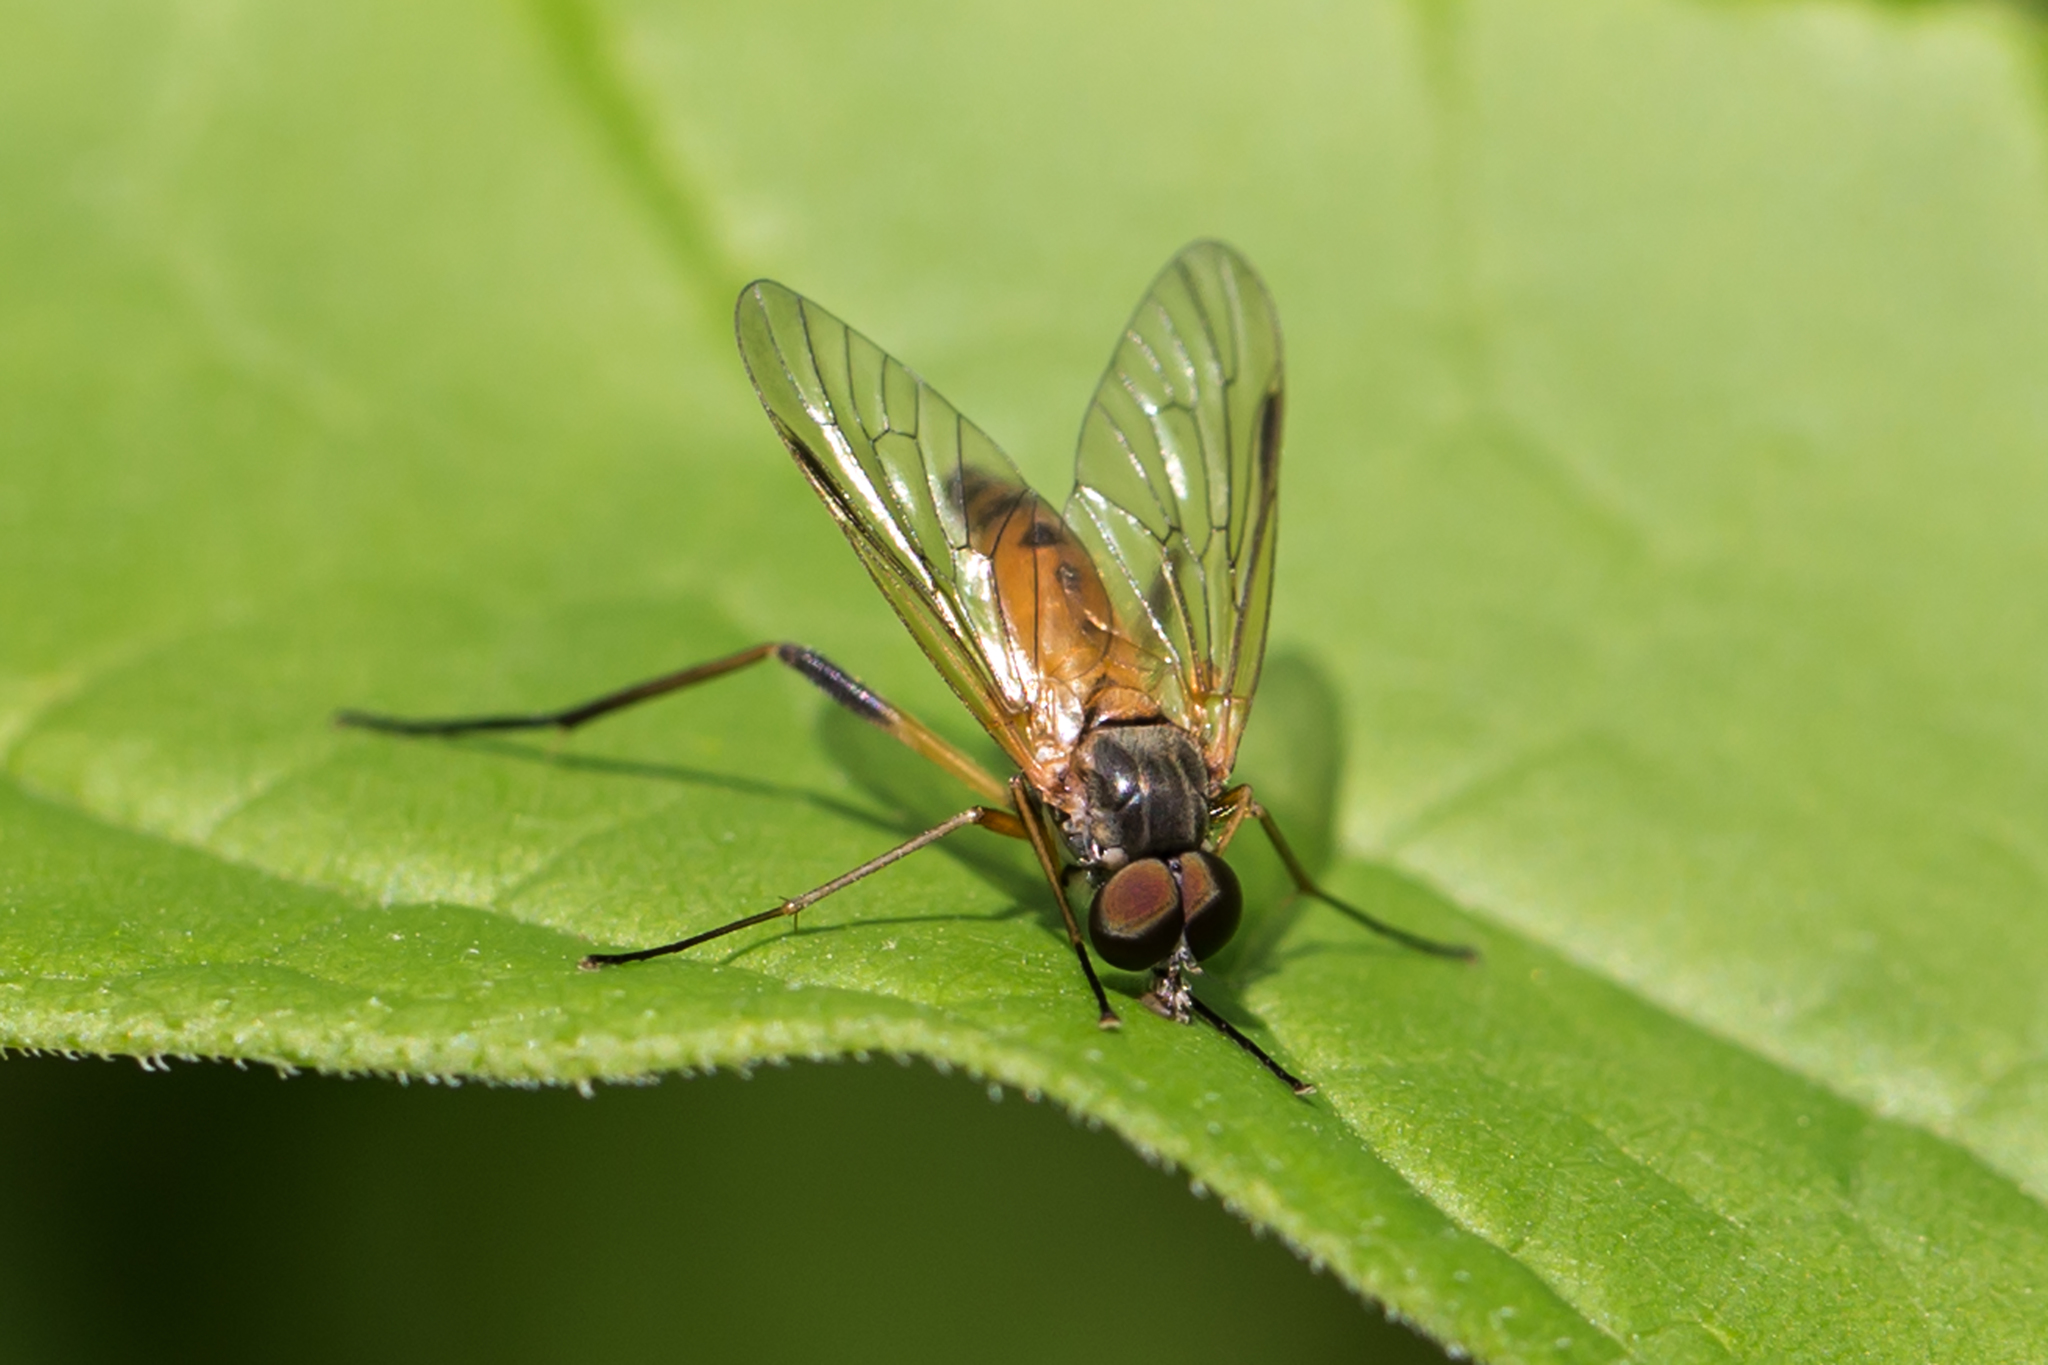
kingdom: Animalia
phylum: Arthropoda
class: Insecta
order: Diptera
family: Rhagionidae
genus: Rhagio
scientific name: Rhagio vertebratus
